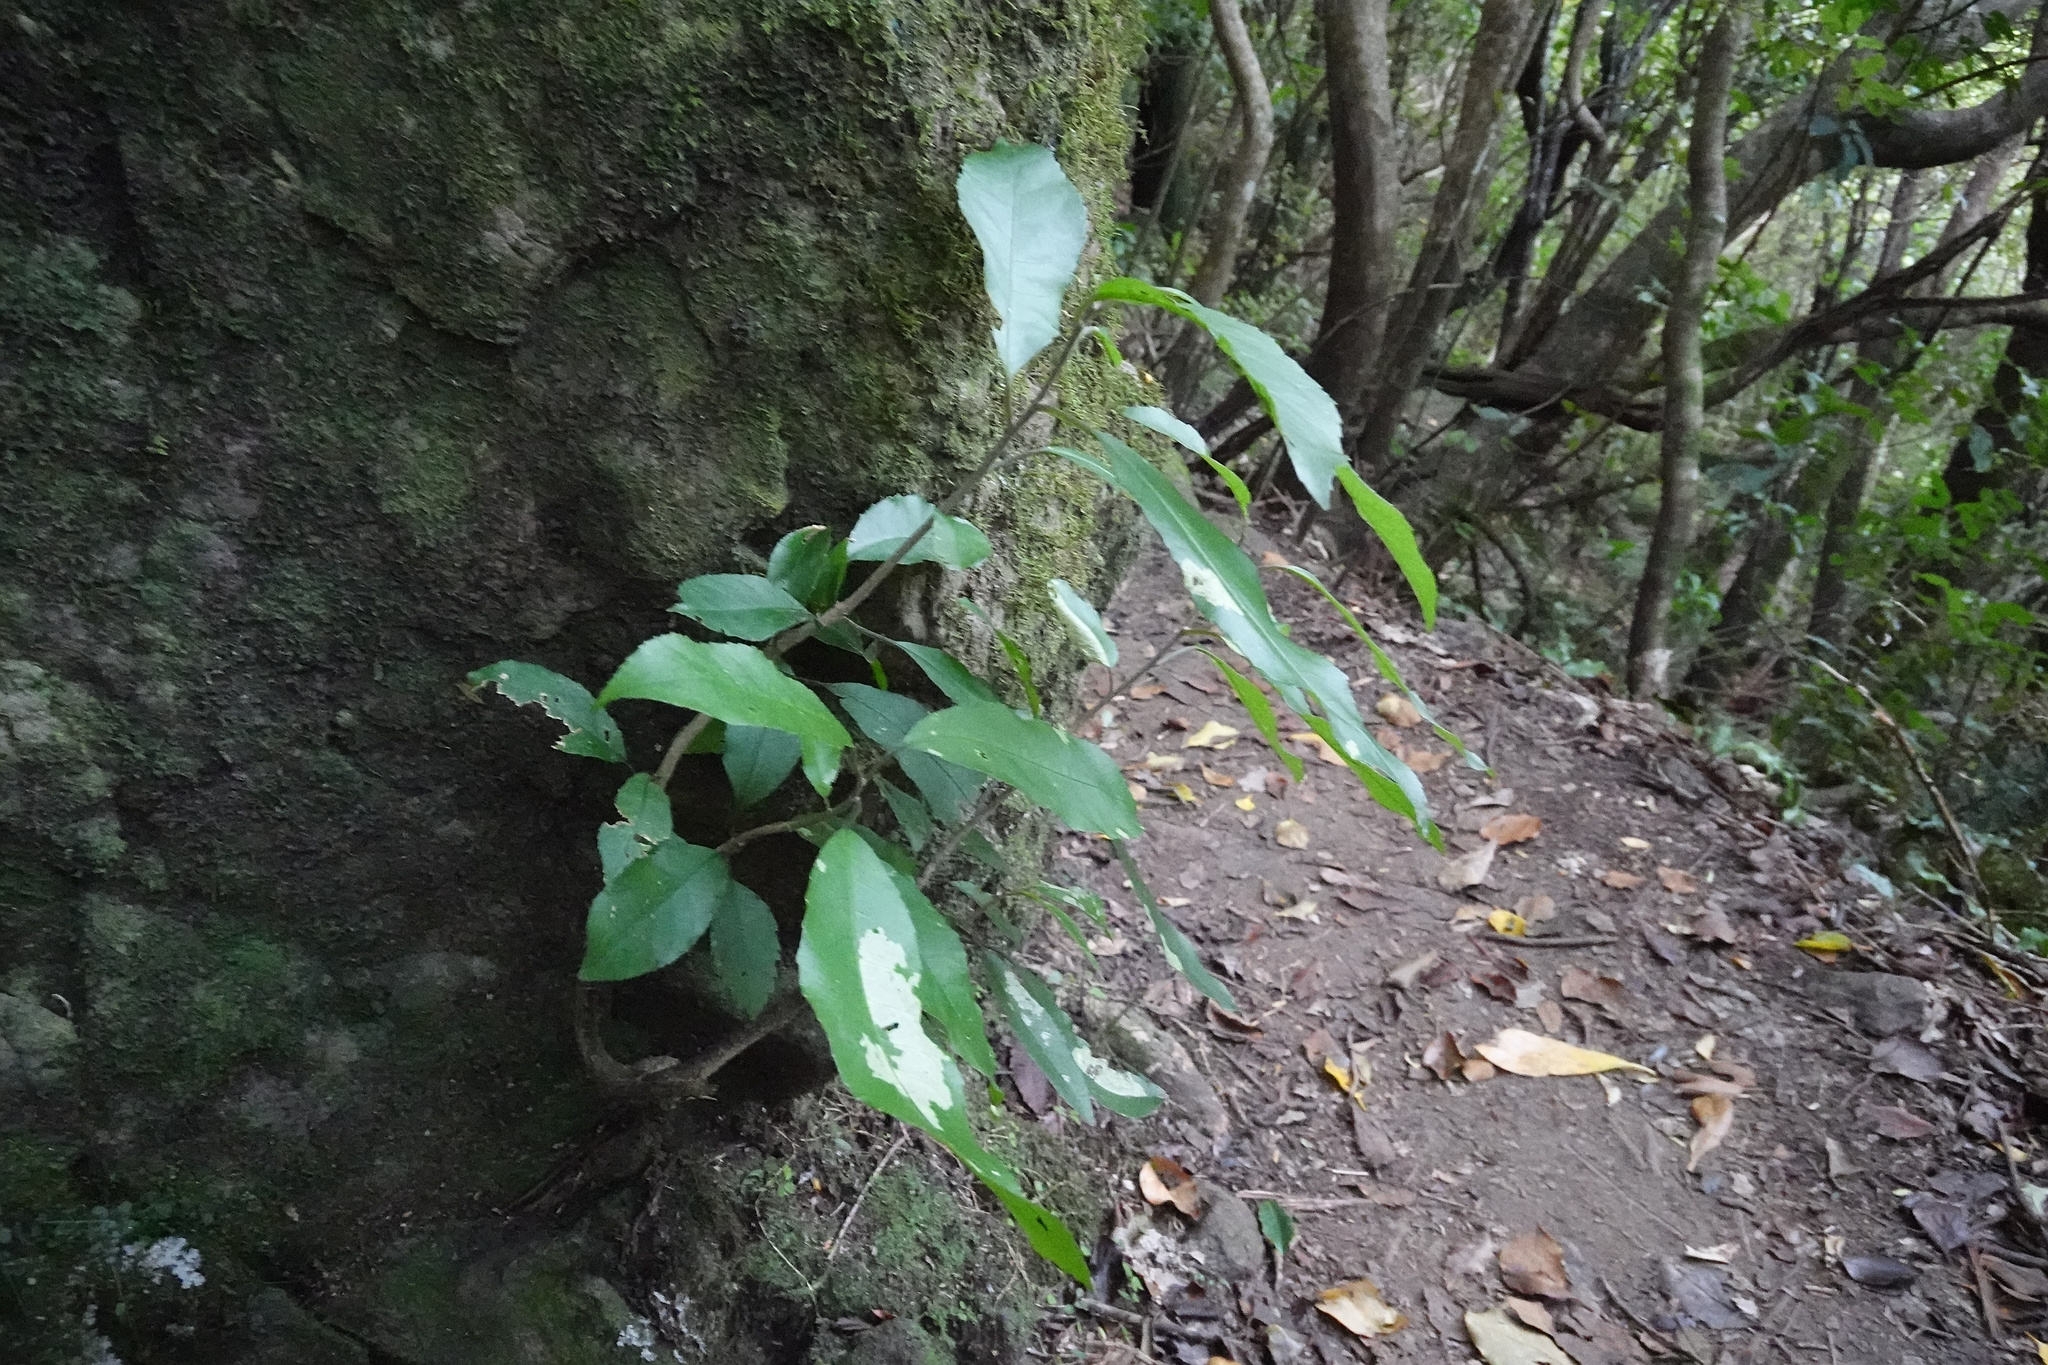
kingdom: Plantae
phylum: Tracheophyta
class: Magnoliopsida
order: Malpighiales
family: Violaceae
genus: Melicytus
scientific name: Melicytus ramiflorus
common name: Mahoe
